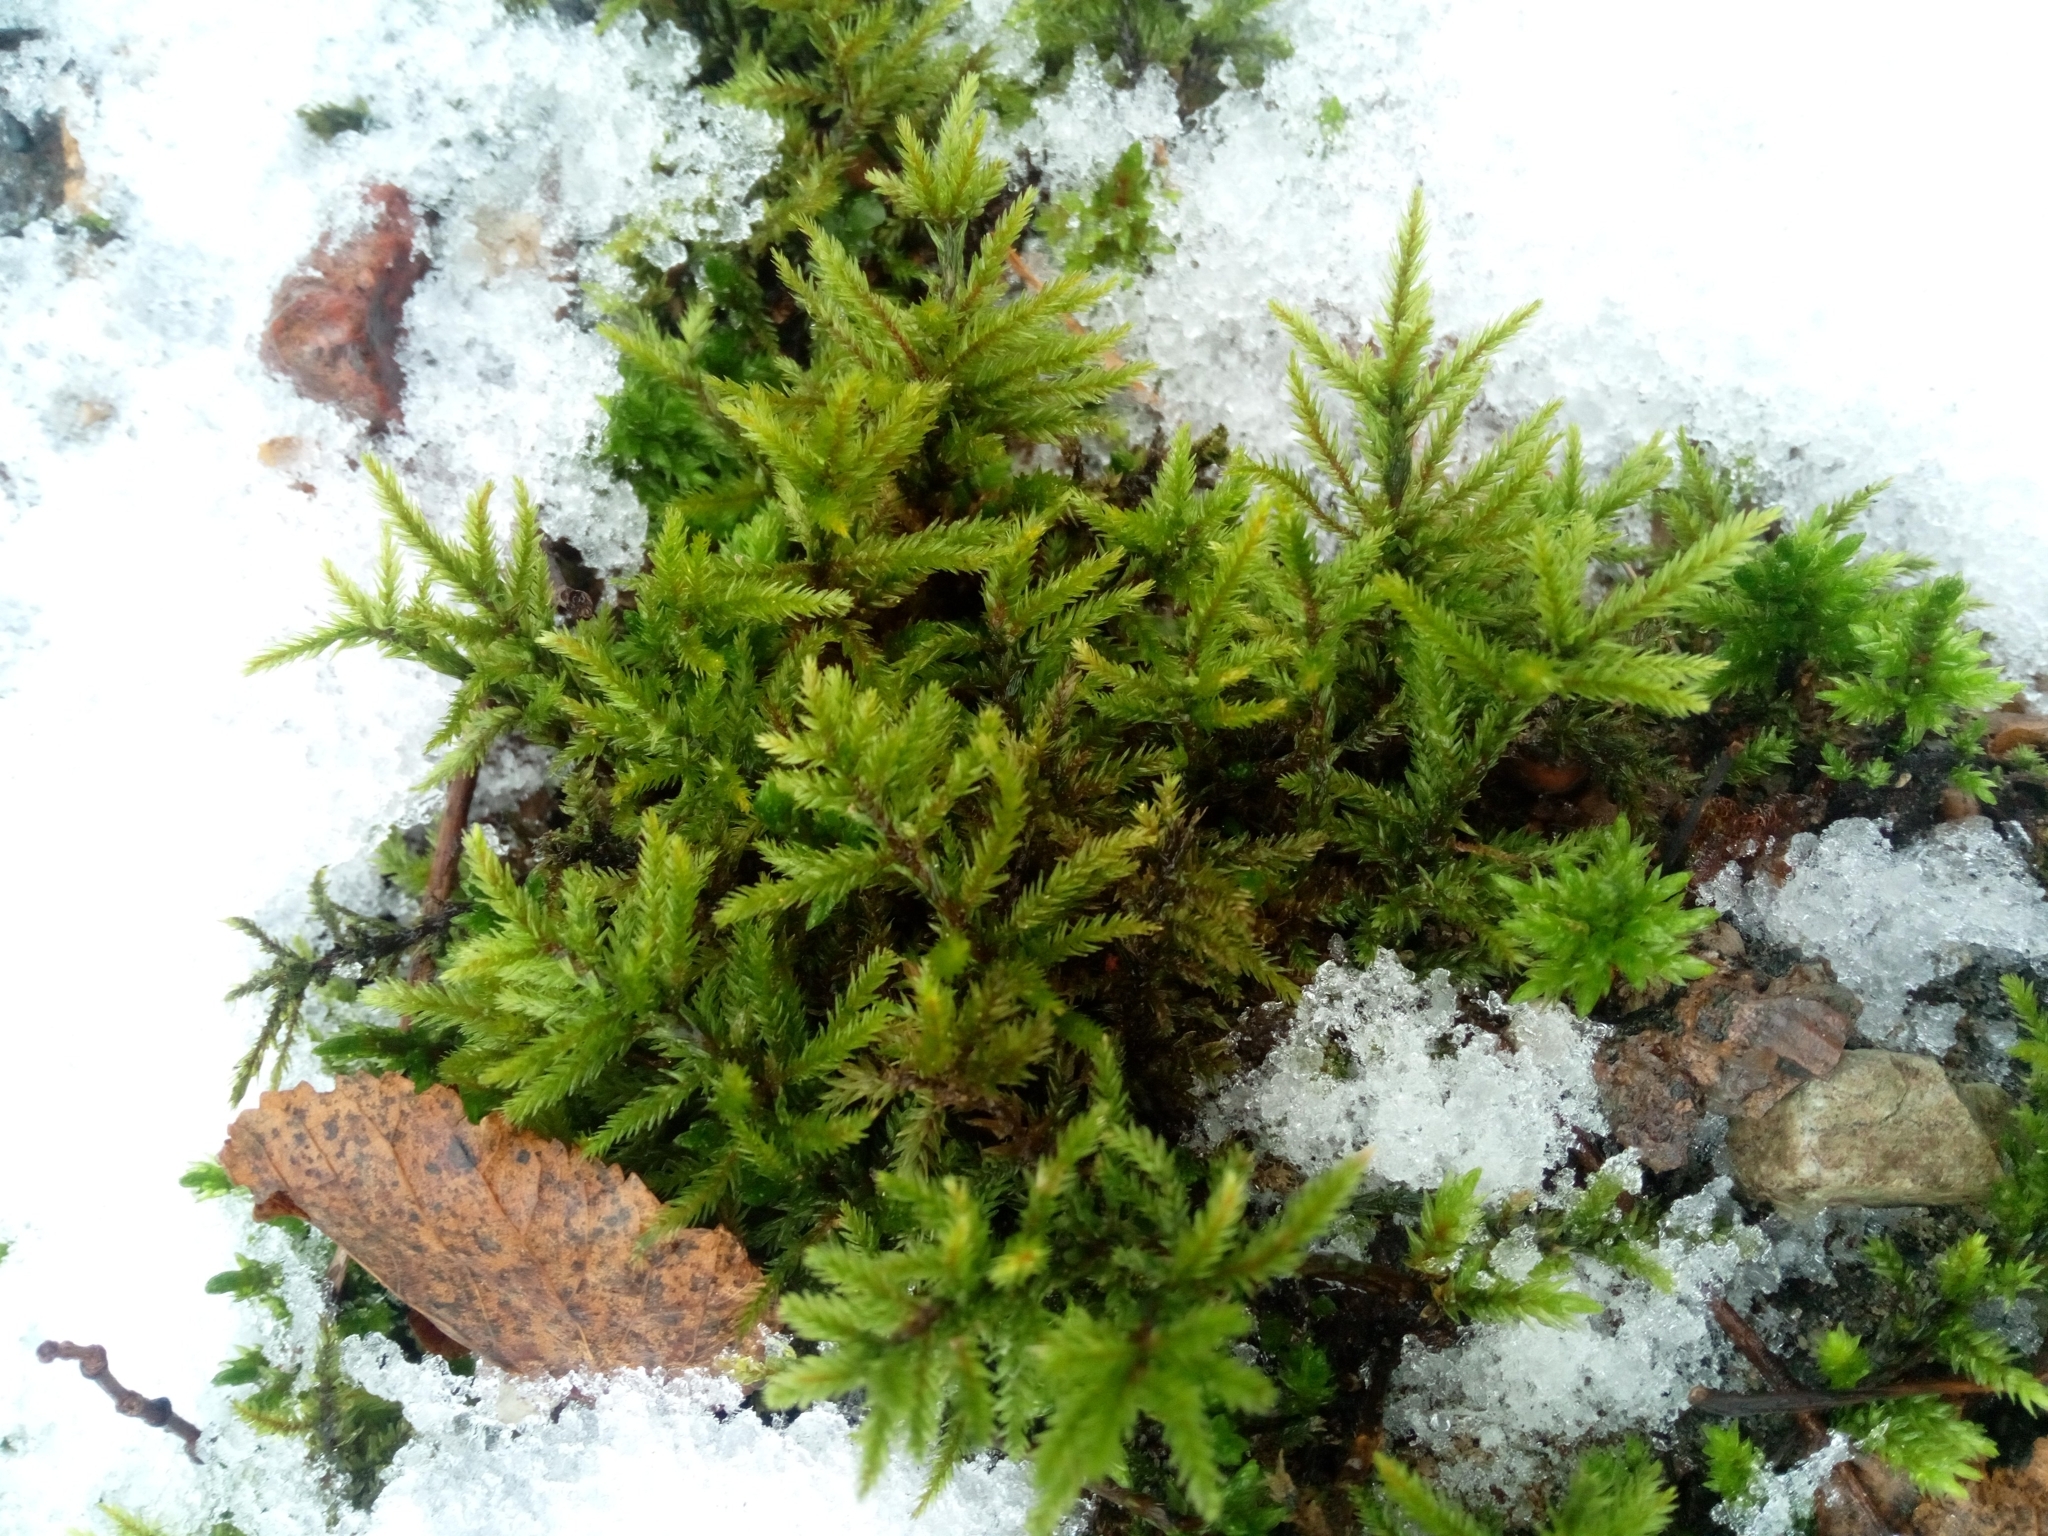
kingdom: Plantae
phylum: Bryophyta
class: Bryopsida
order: Hypnales
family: Climaciaceae
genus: Climacium
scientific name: Climacium dendroides
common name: Northern tree moss
